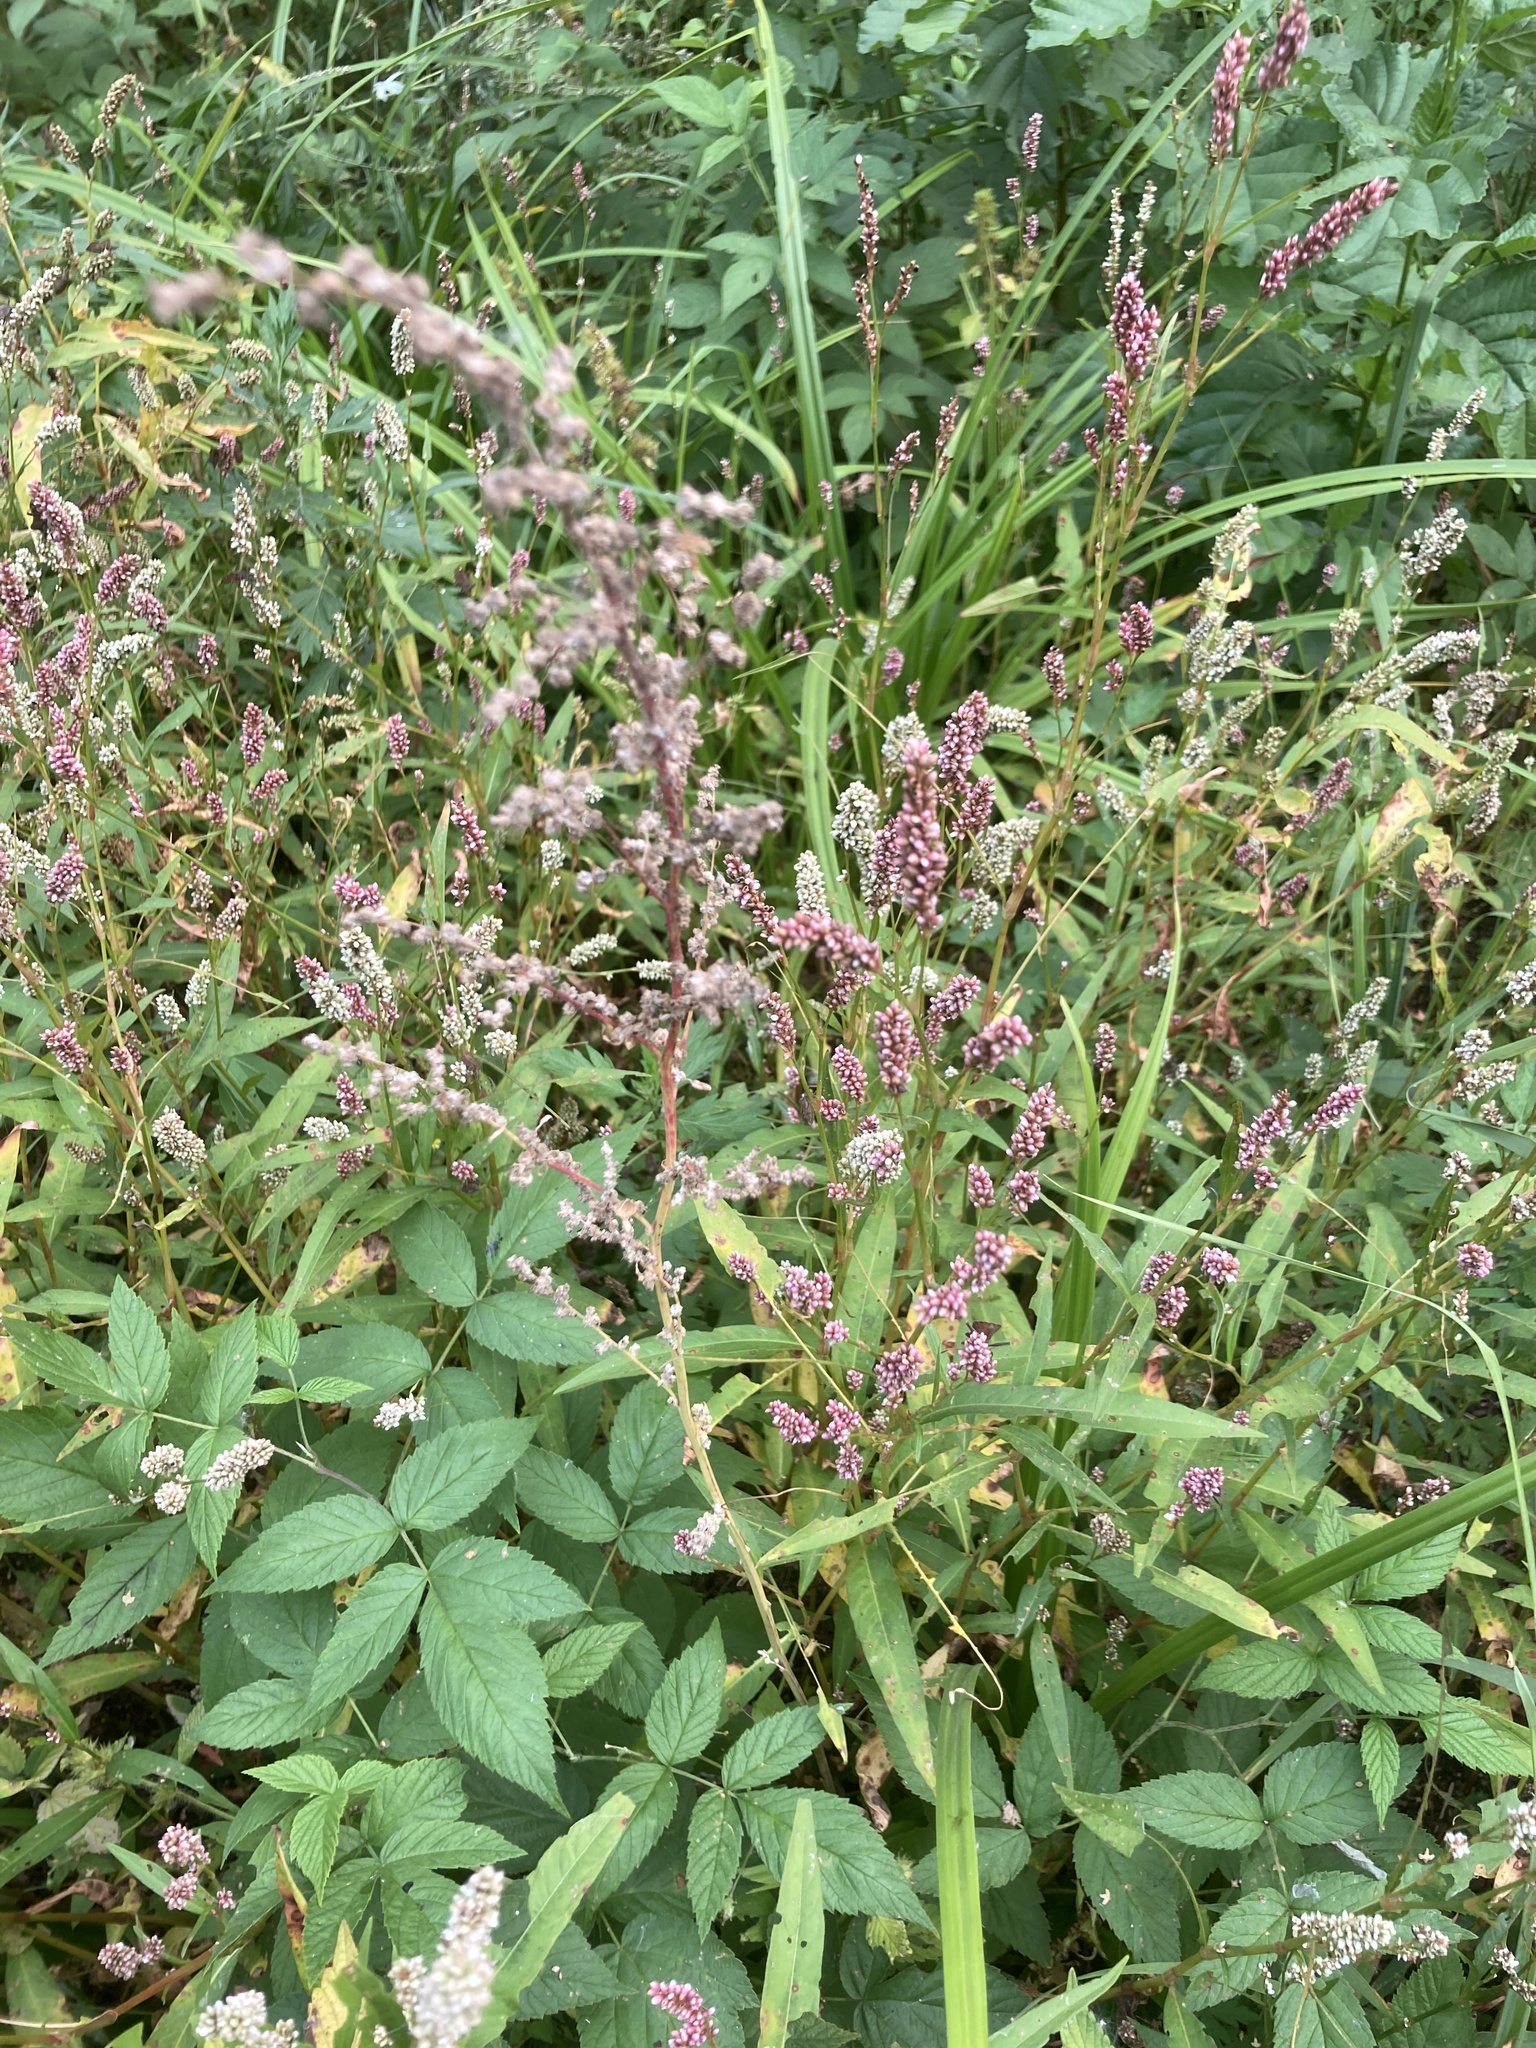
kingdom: Plantae
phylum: Tracheophyta
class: Magnoliopsida
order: Caryophyllales
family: Polygonaceae
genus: Persicaria
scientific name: Persicaria maculosa
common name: Redshank
